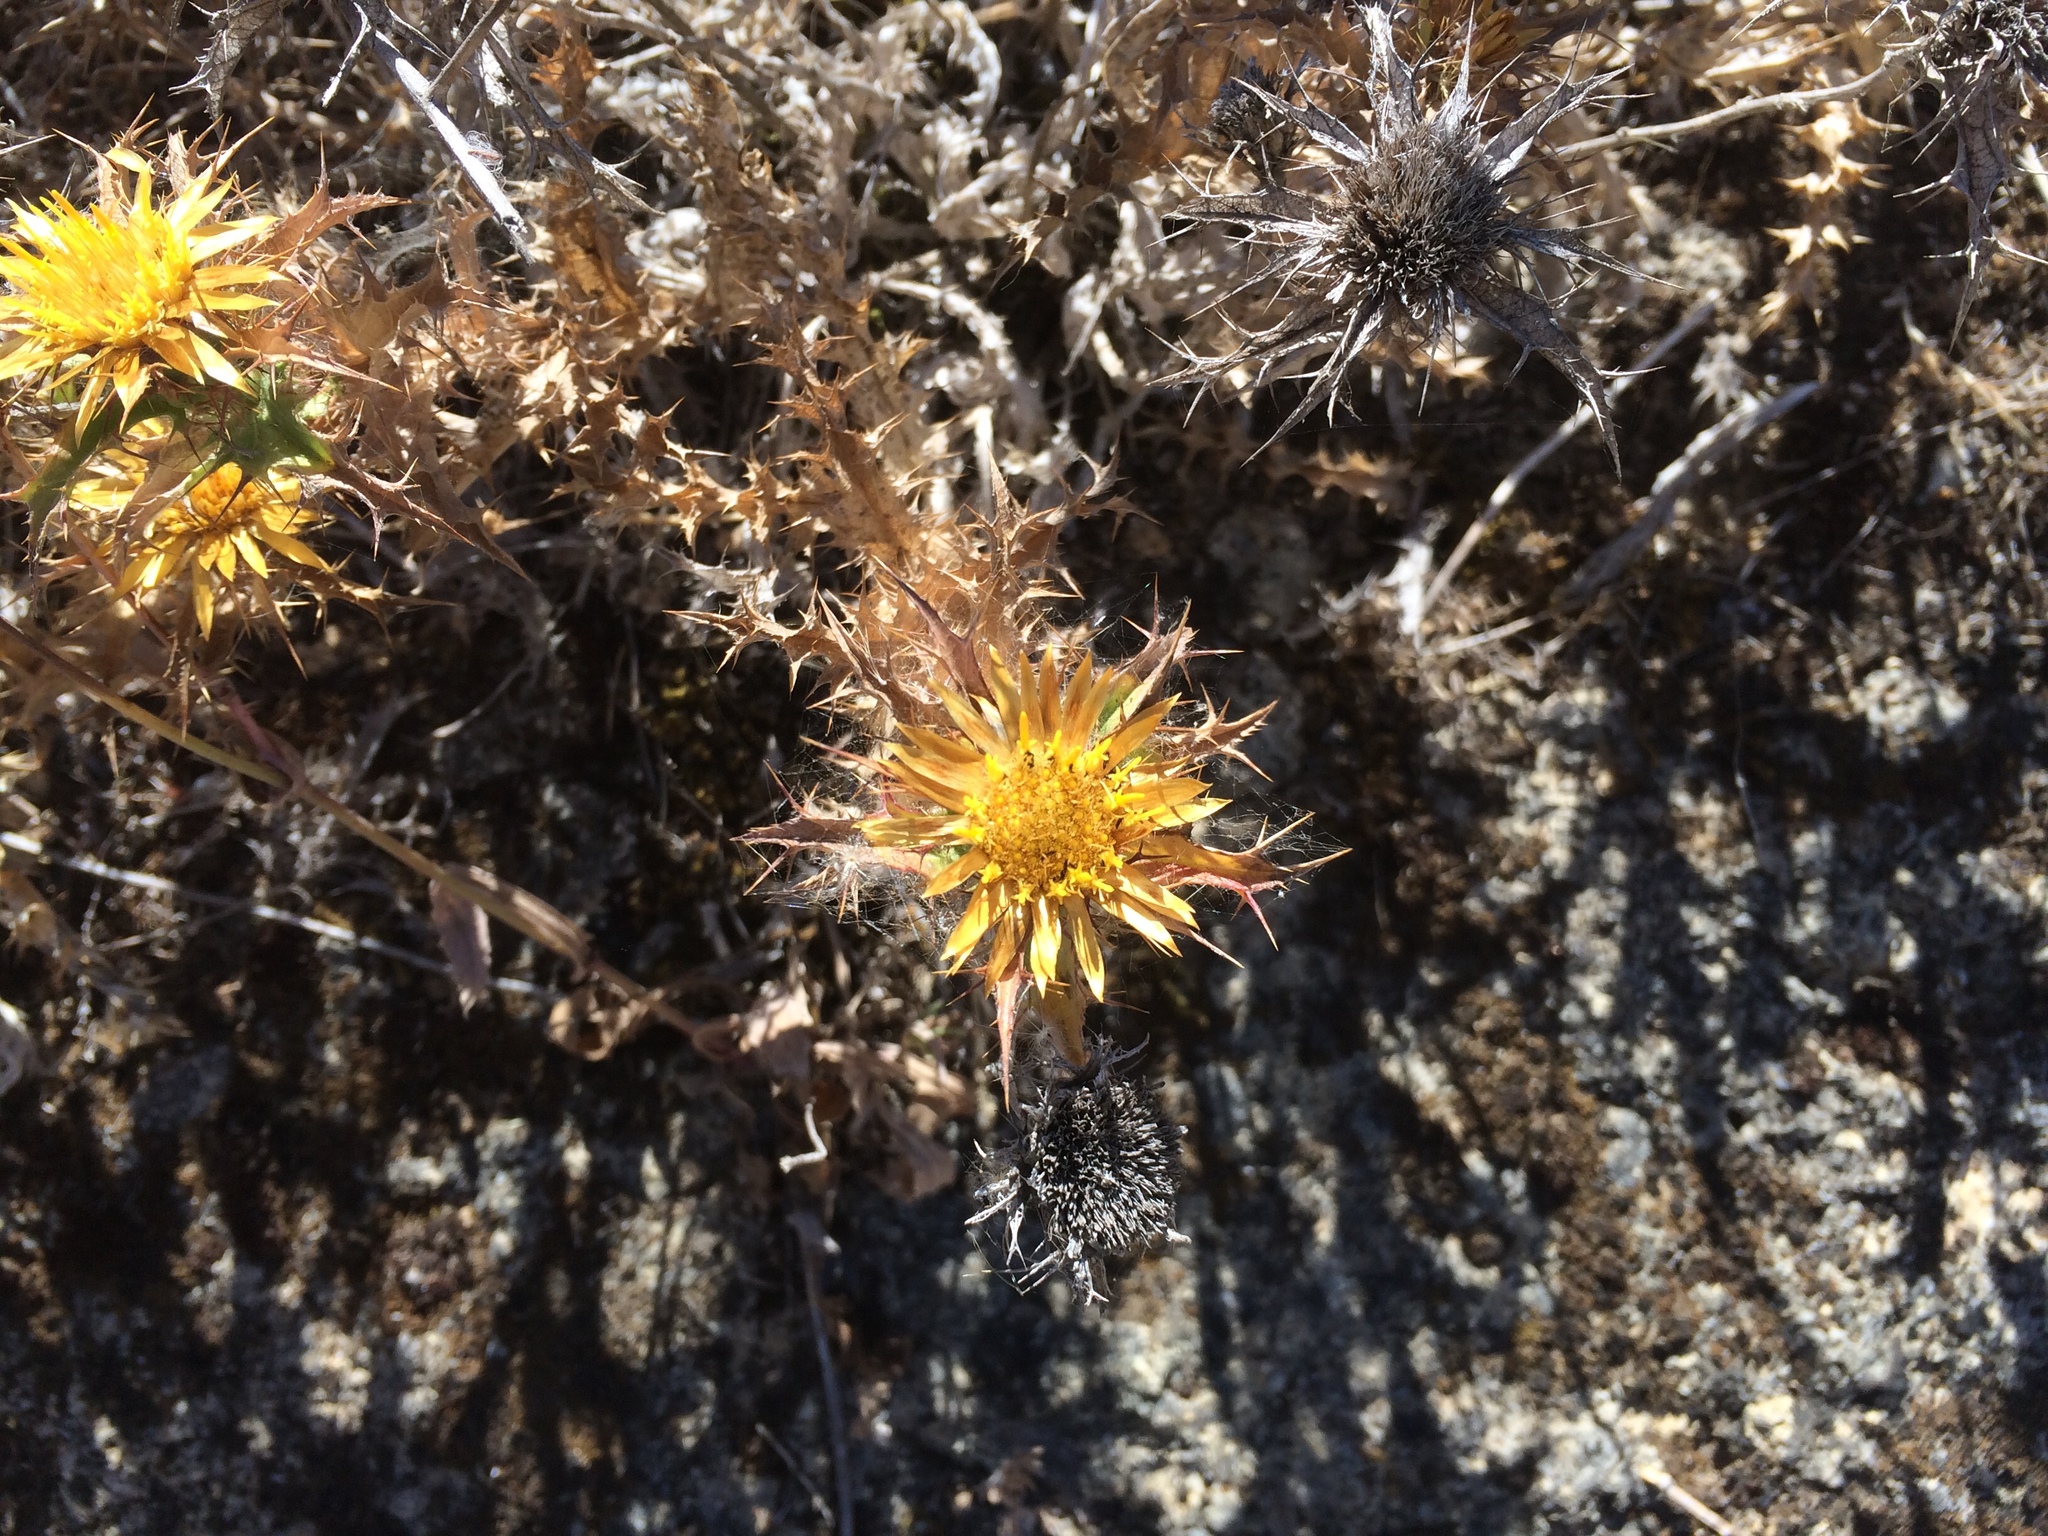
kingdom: Plantae
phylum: Tracheophyta
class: Magnoliopsida
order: Asterales
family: Asteraceae
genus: Carlina
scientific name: Carlina hispanica
